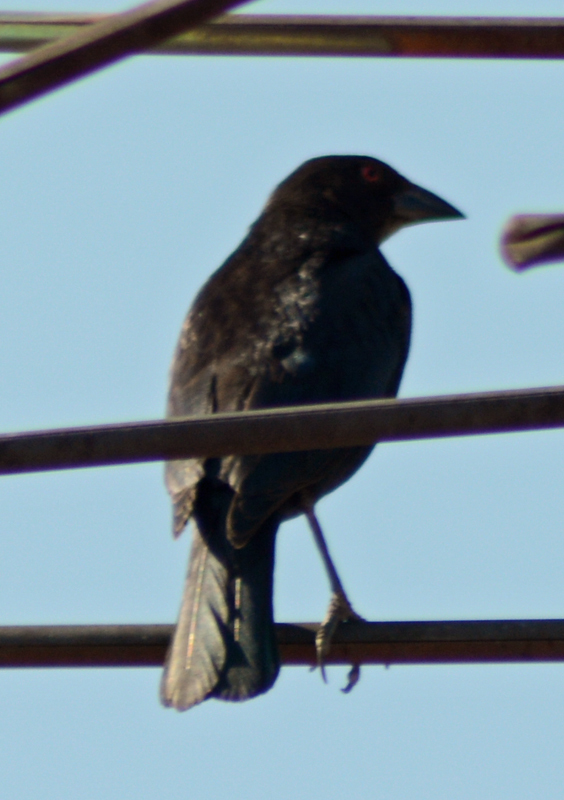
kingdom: Animalia
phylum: Chordata
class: Aves
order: Passeriformes
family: Icteridae
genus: Molothrus
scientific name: Molothrus aeneus
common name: Bronzed cowbird
